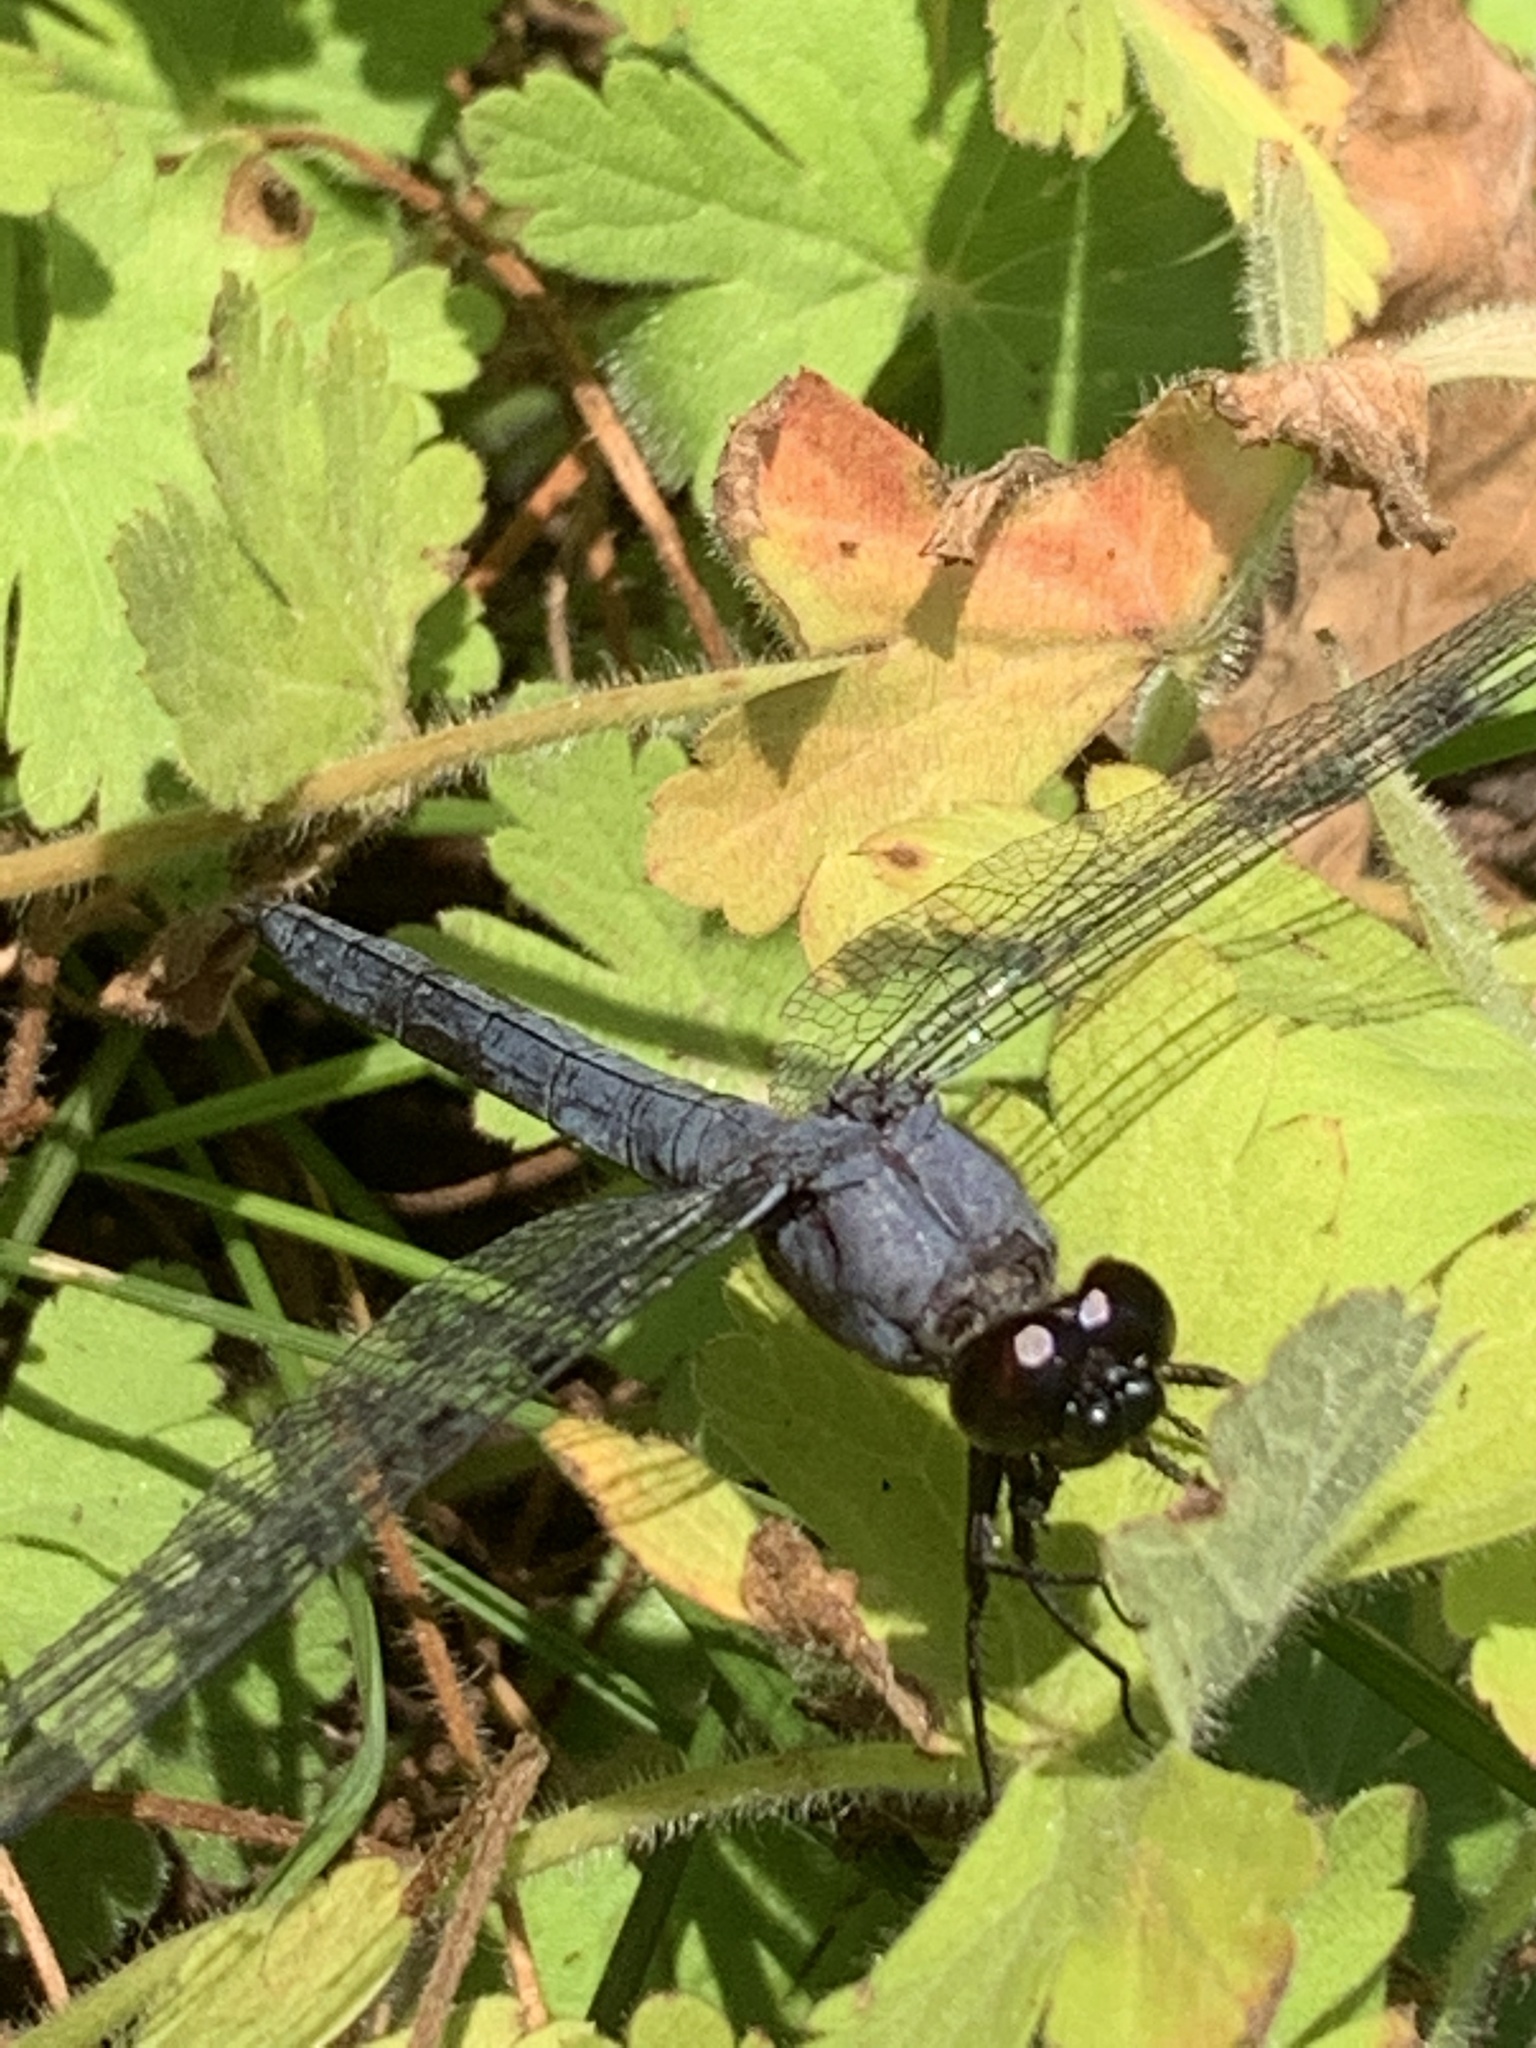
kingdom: Animalia
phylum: Arthropoda
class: Insecta
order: Odonata
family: Libellulidae
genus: Libellula
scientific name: Libellula incesta
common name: Slaty skimmer
